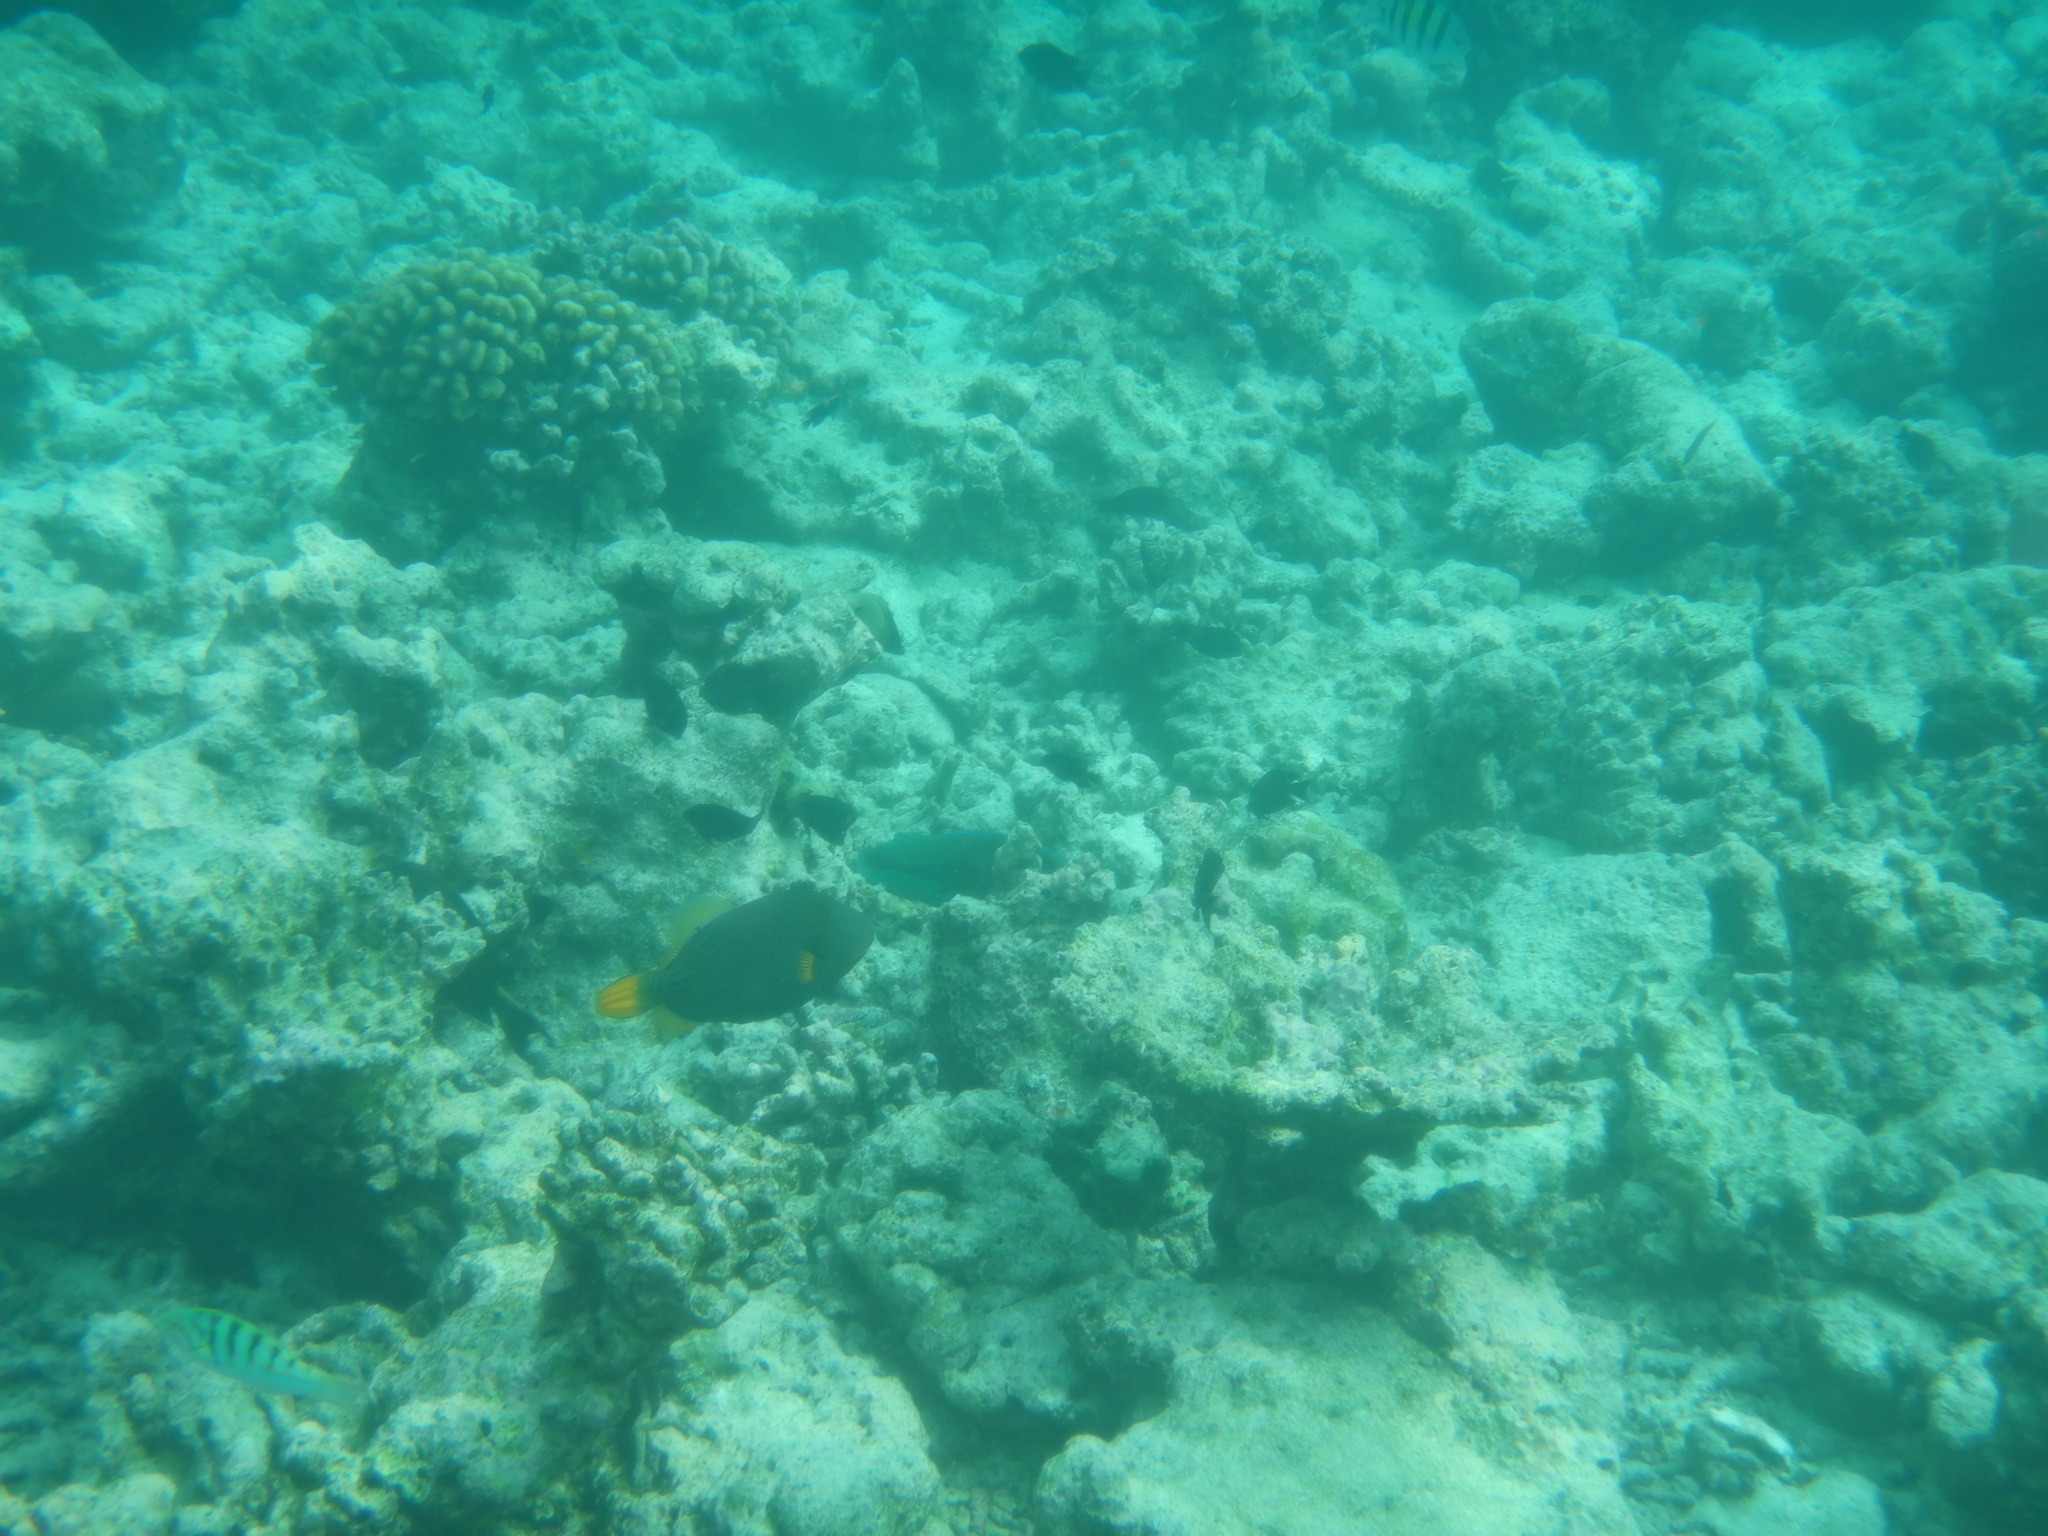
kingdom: Animalia
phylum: Chordata
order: Tetraodontiformes
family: Balistidae
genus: Balistapus
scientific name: Balistapus undulatus
